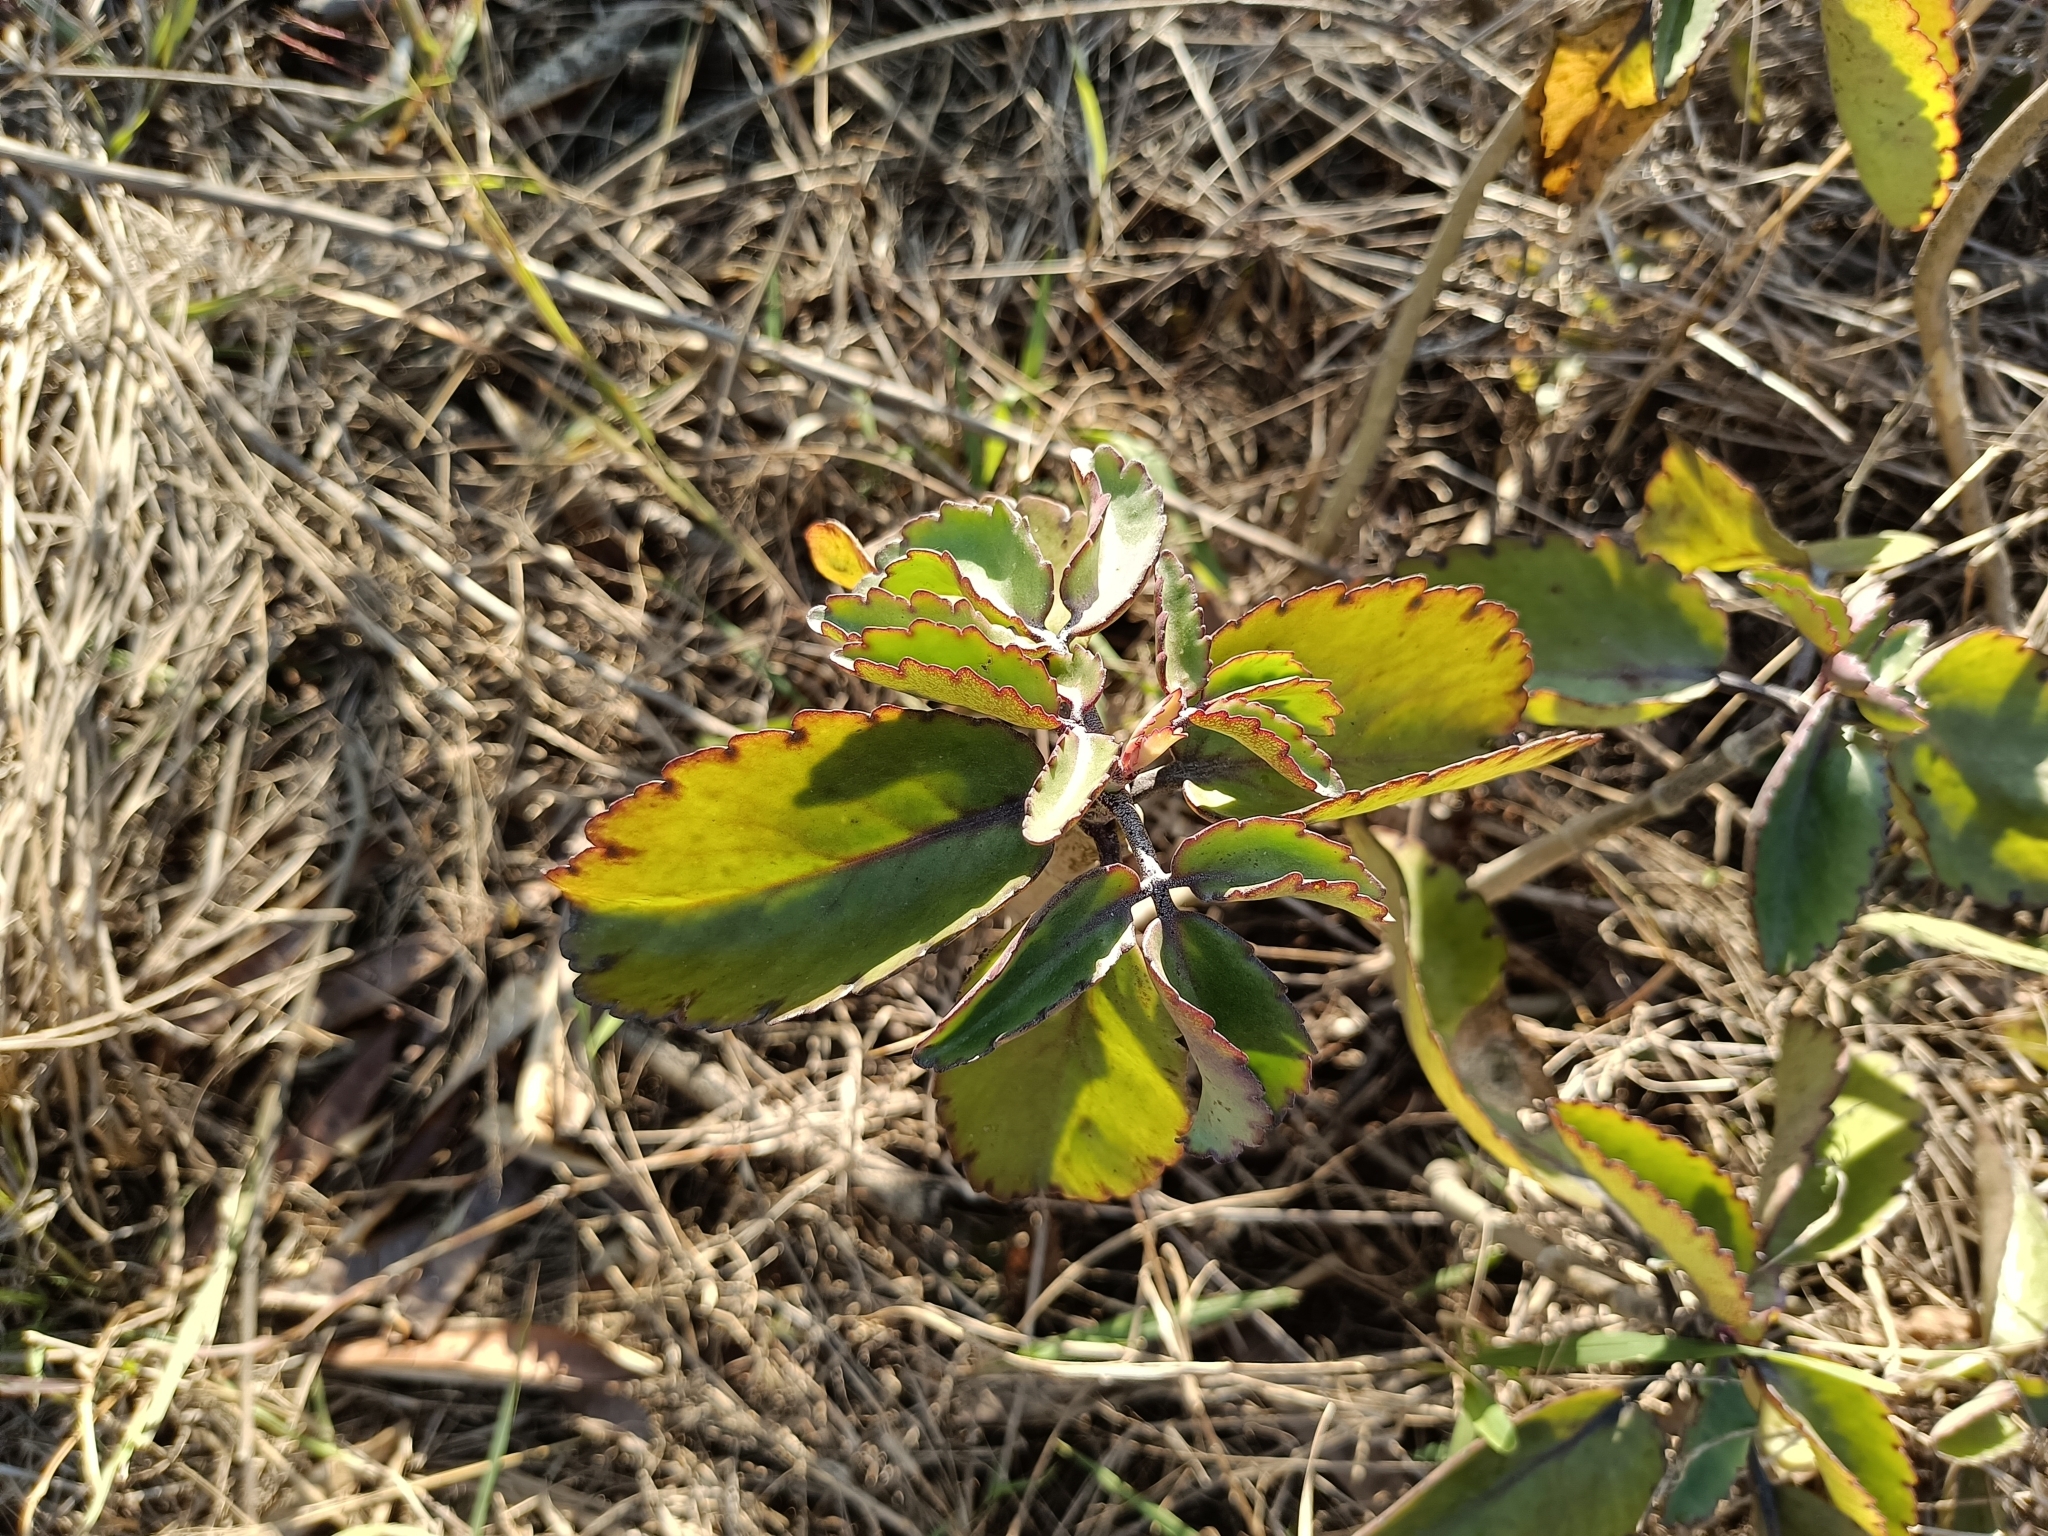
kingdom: Plantae
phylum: Tracheophyta
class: Magnoliopsida
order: Saxifragales
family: Crassulaceae
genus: Kalanchoe
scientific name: Kalanchoe pinnata
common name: Cathedral bells
